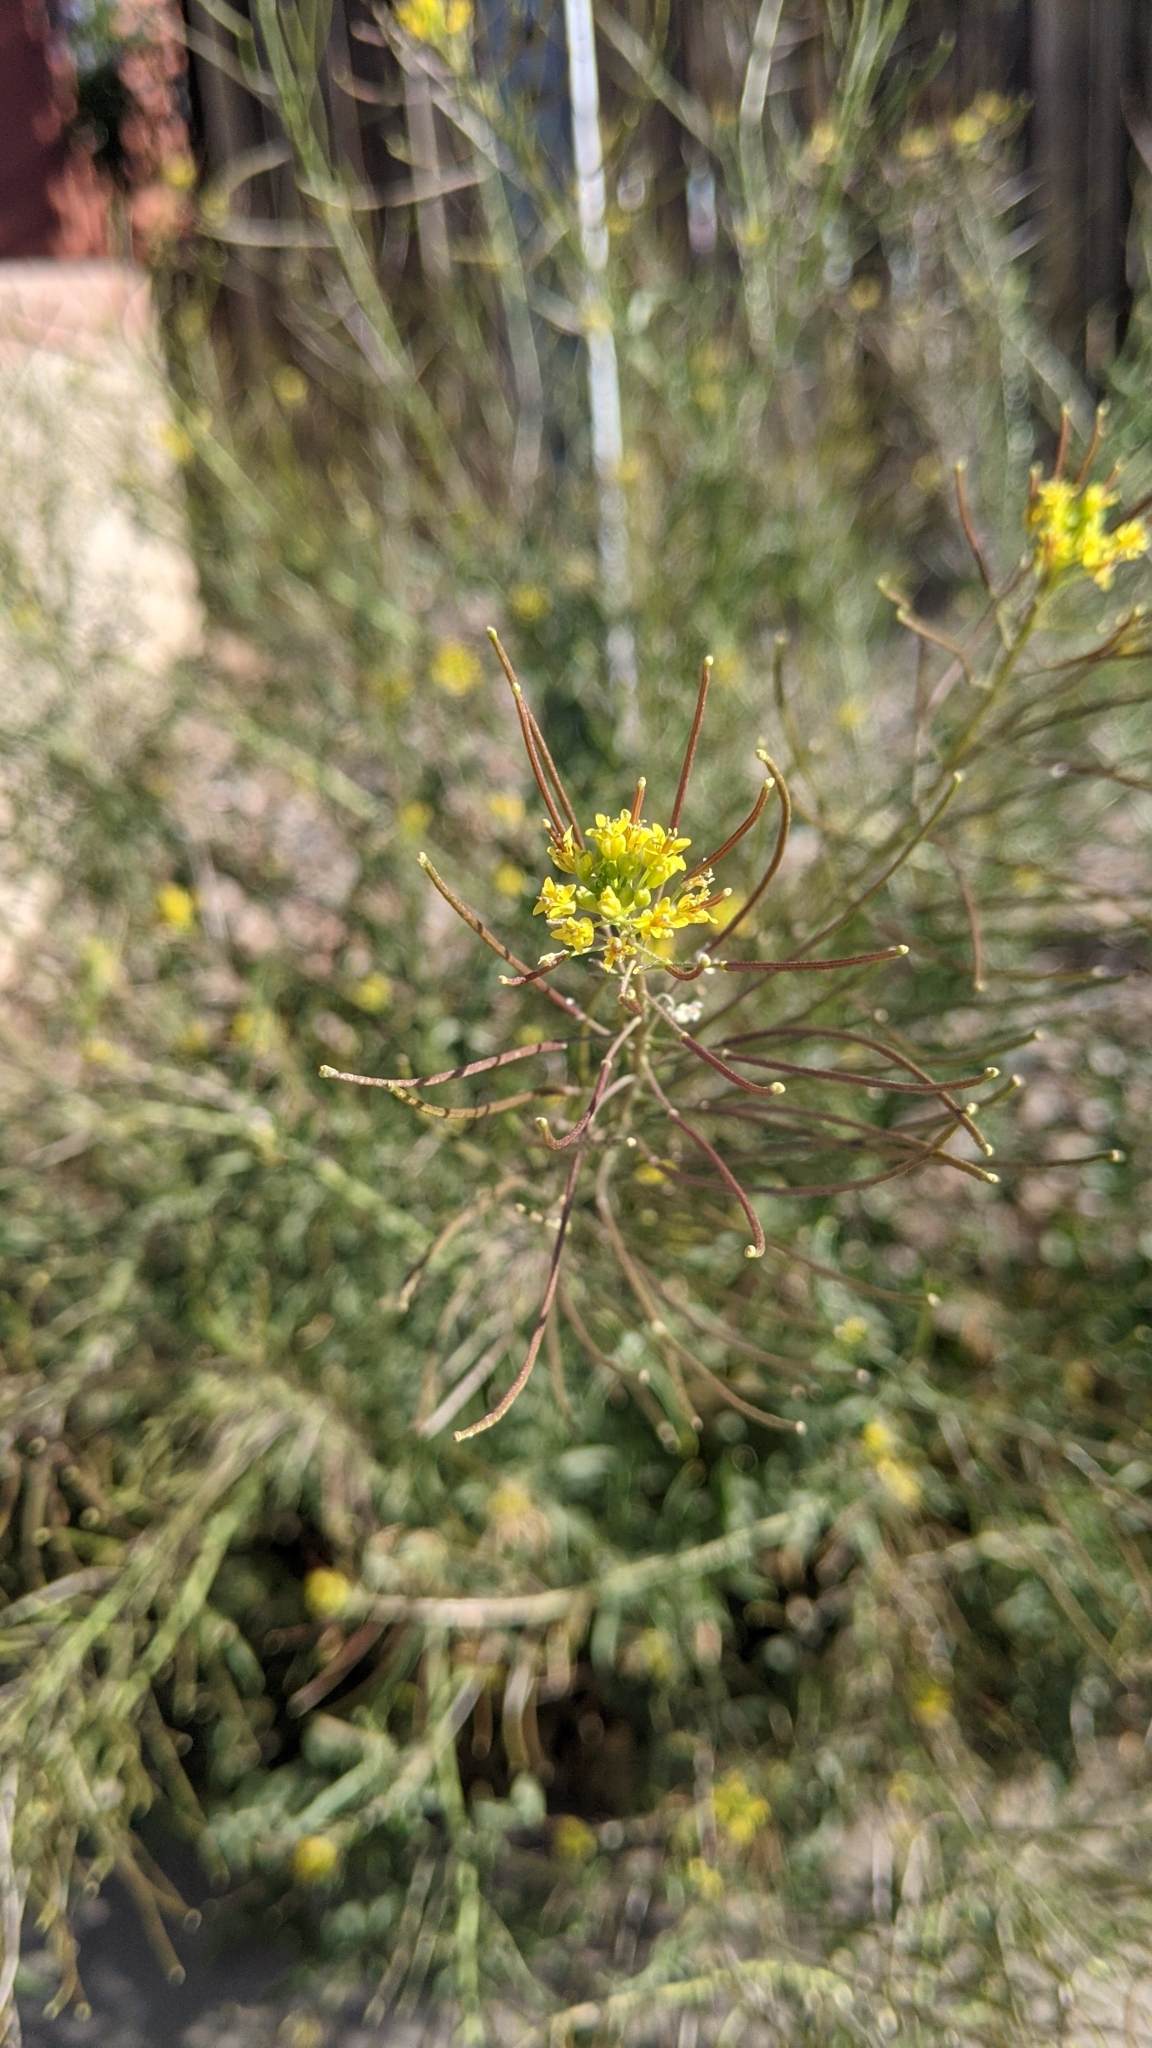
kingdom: Plantae
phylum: Tracheophyta
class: Magnoliopsida
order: Brassicales
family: Brassicaceae
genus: Sisymbrium
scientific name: Sisymbrium irio
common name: London rocket
